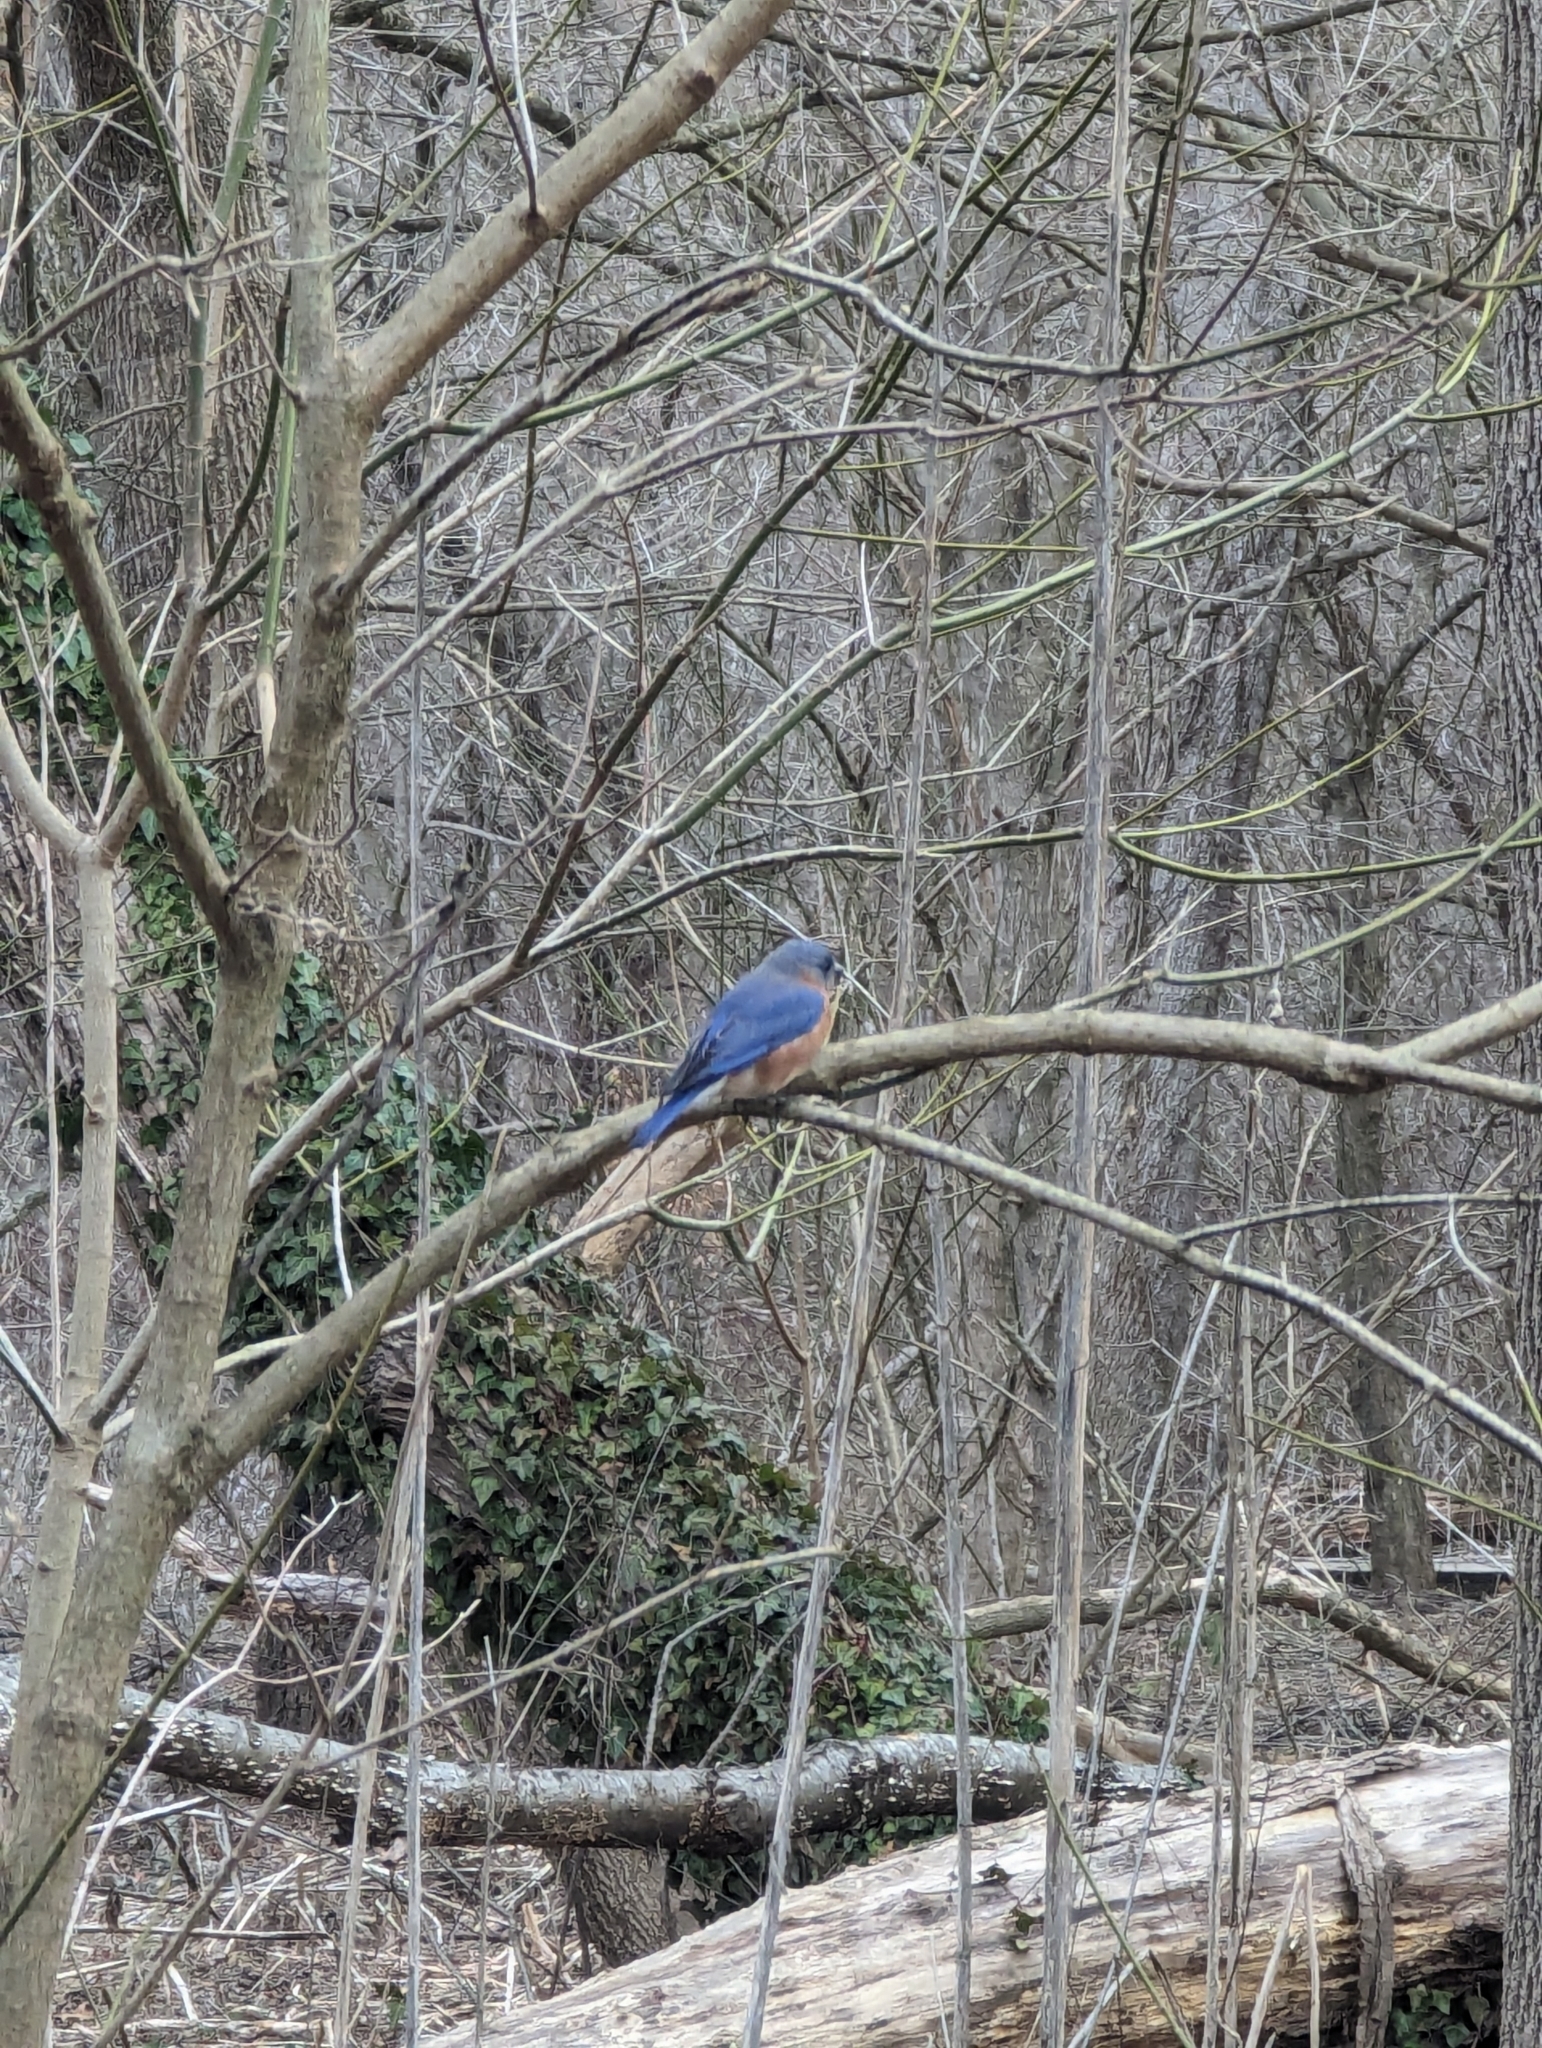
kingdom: Animalia
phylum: Chordata
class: Aves
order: Passeriformes
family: Turdidae
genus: Sialia
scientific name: Sialia sialis
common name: Eastern bluebird
